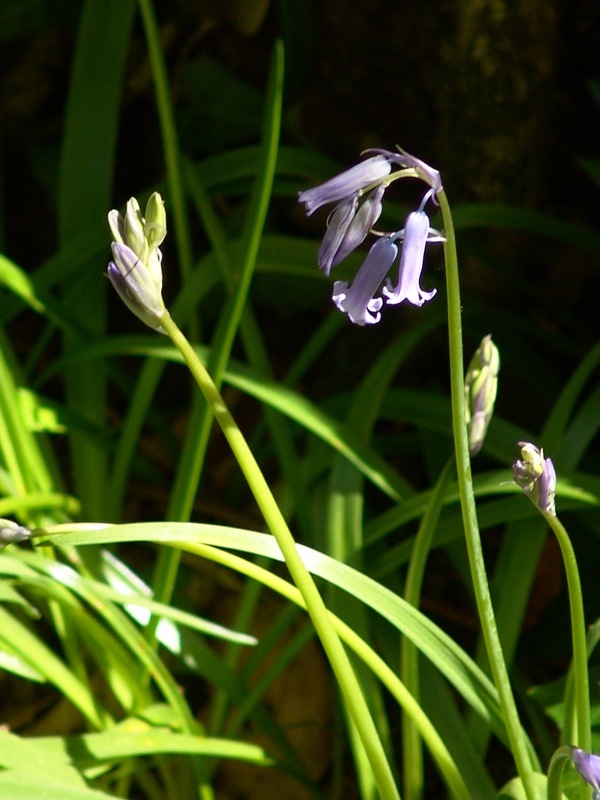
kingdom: Plantae
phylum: Tracheophyta
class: Liliopsida
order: Asparagales
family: Asparagaceae
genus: Hyacinthoides
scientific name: Hyacinthoides non-scripta
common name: Bluebell
